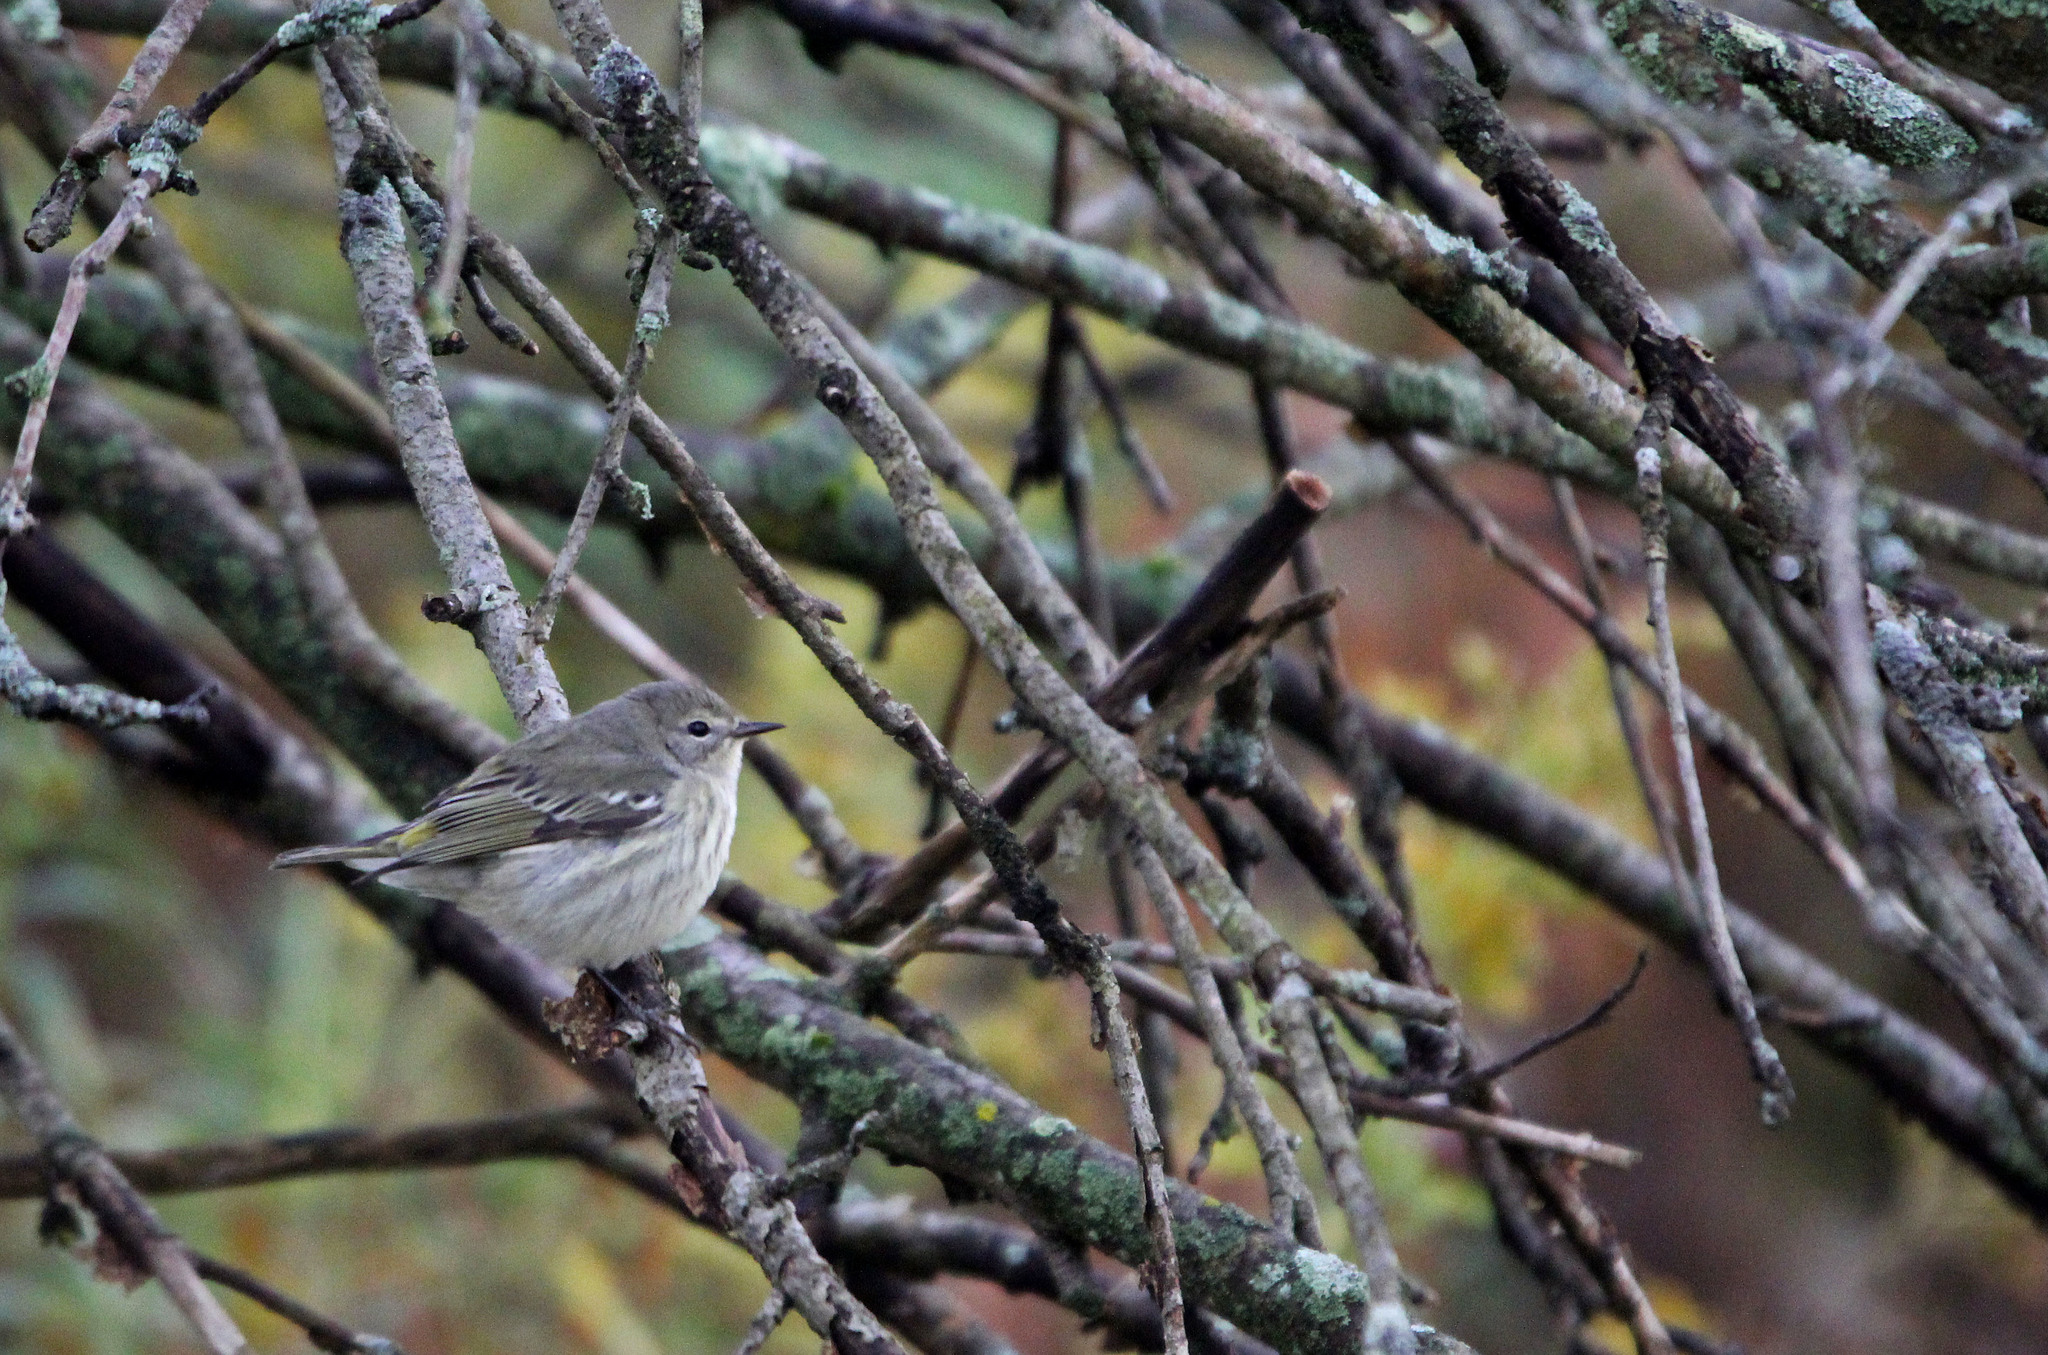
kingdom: Animalia
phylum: Chordata
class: Aves
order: Passeriformes
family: Parulidae
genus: Setophaga
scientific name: Setophaga tigrina
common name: Cape may warbler
